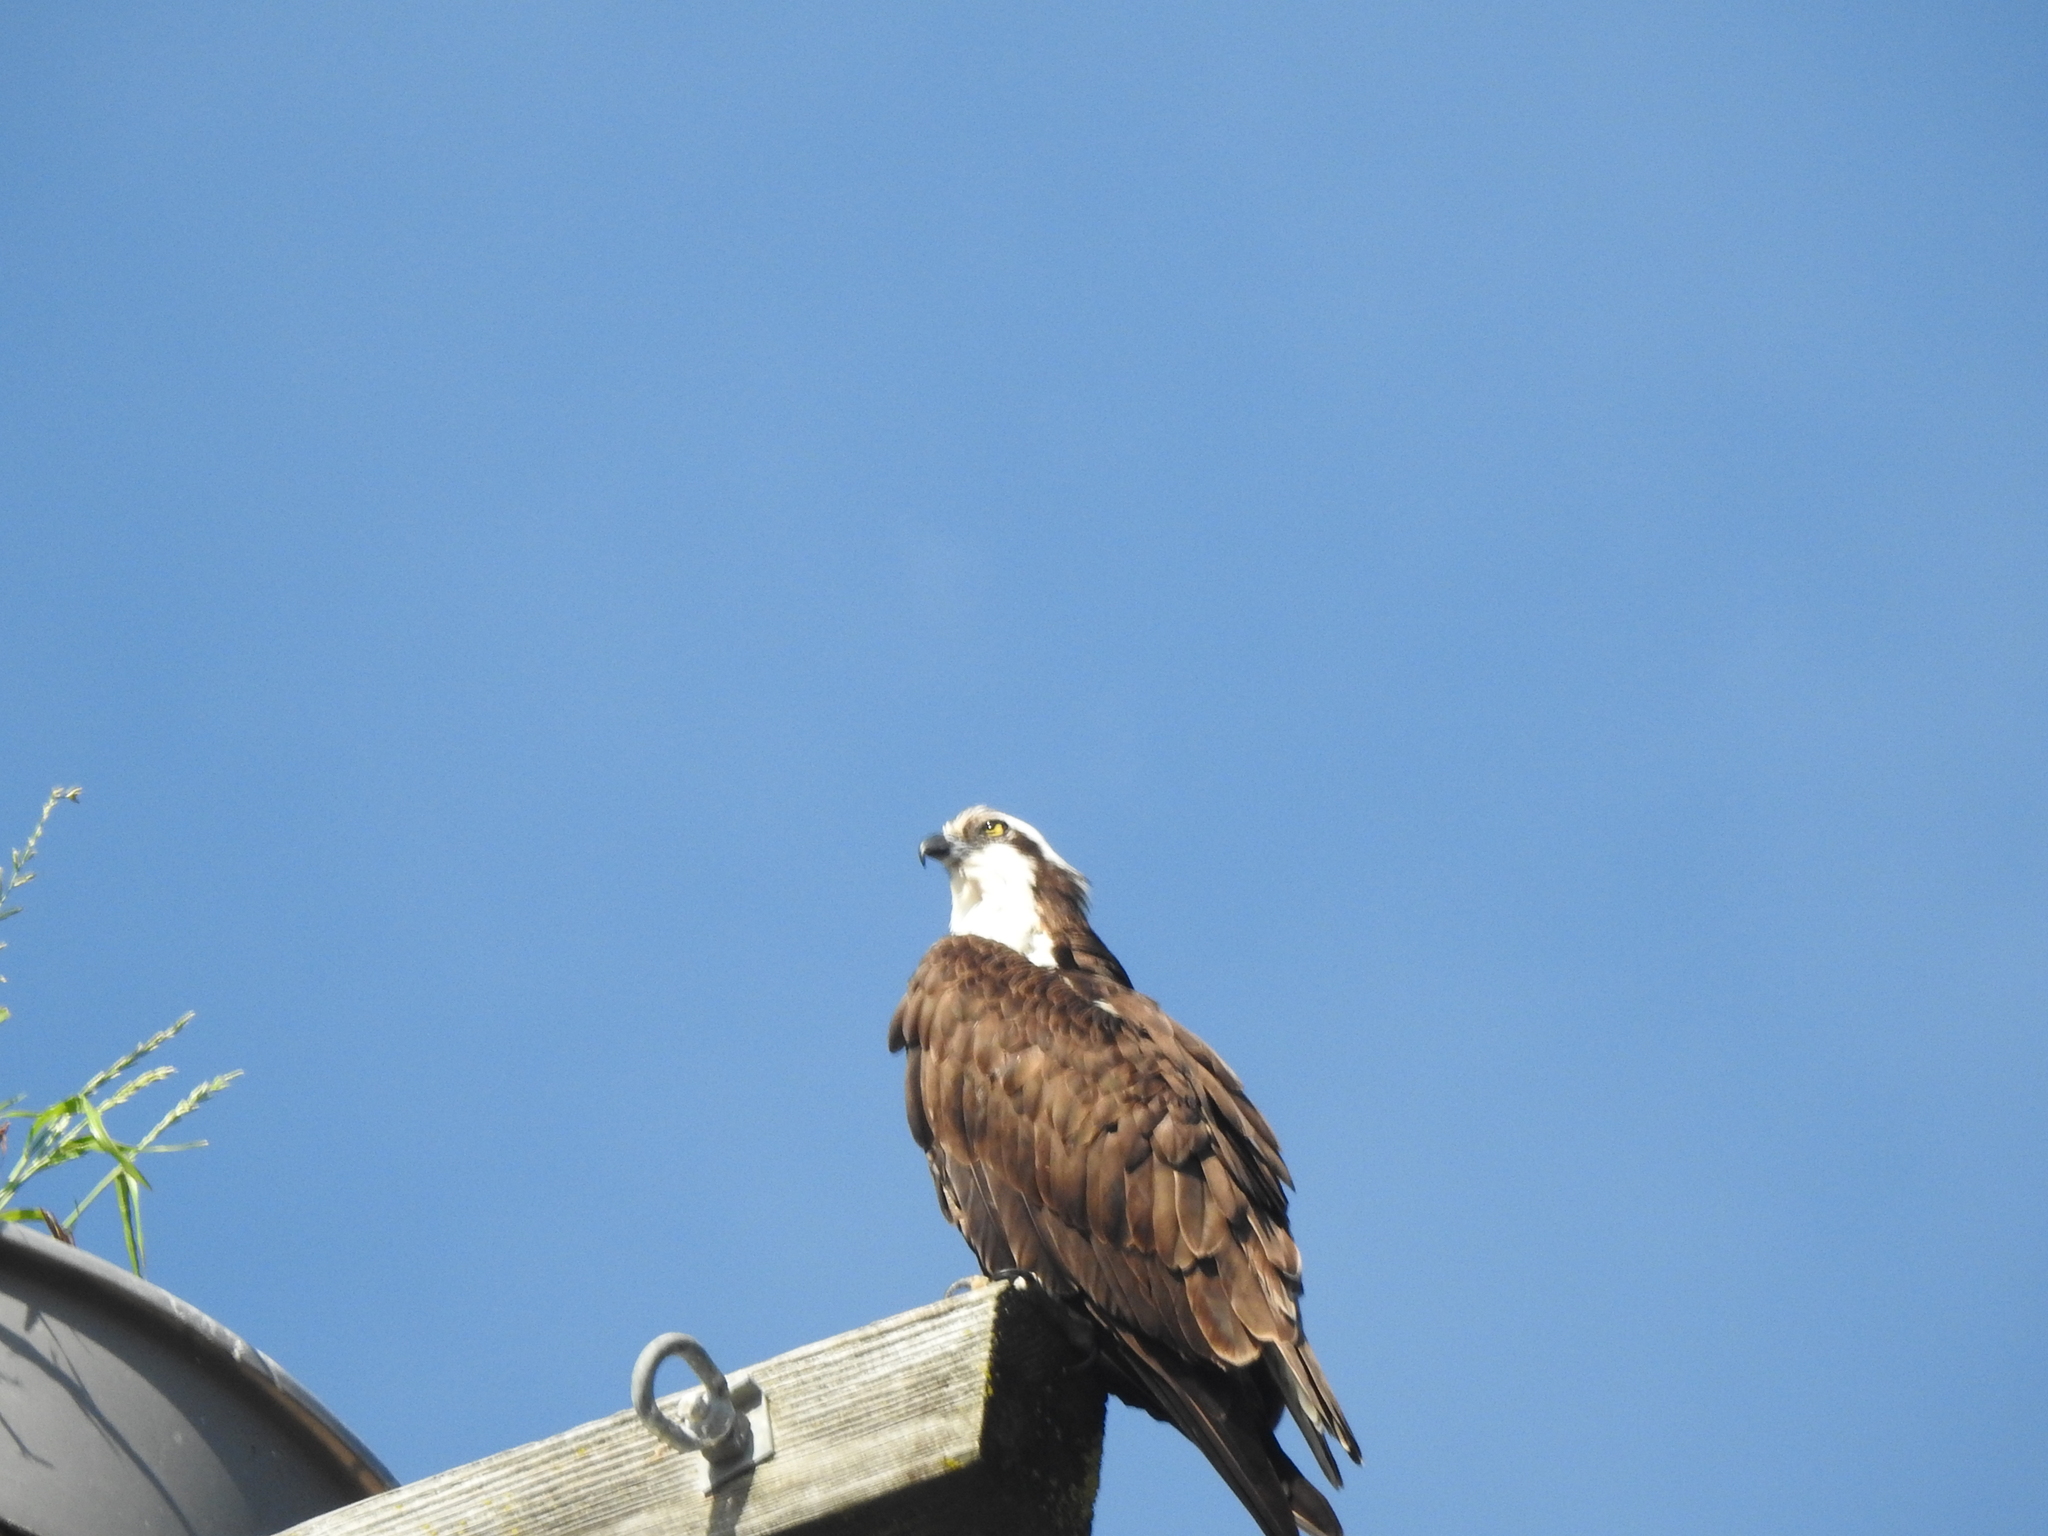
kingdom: Animalia
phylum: Chordata
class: Aves
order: Accipitriformes
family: Pandionidae
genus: Pandion
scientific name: Pandion haliaetus
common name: Osprey
